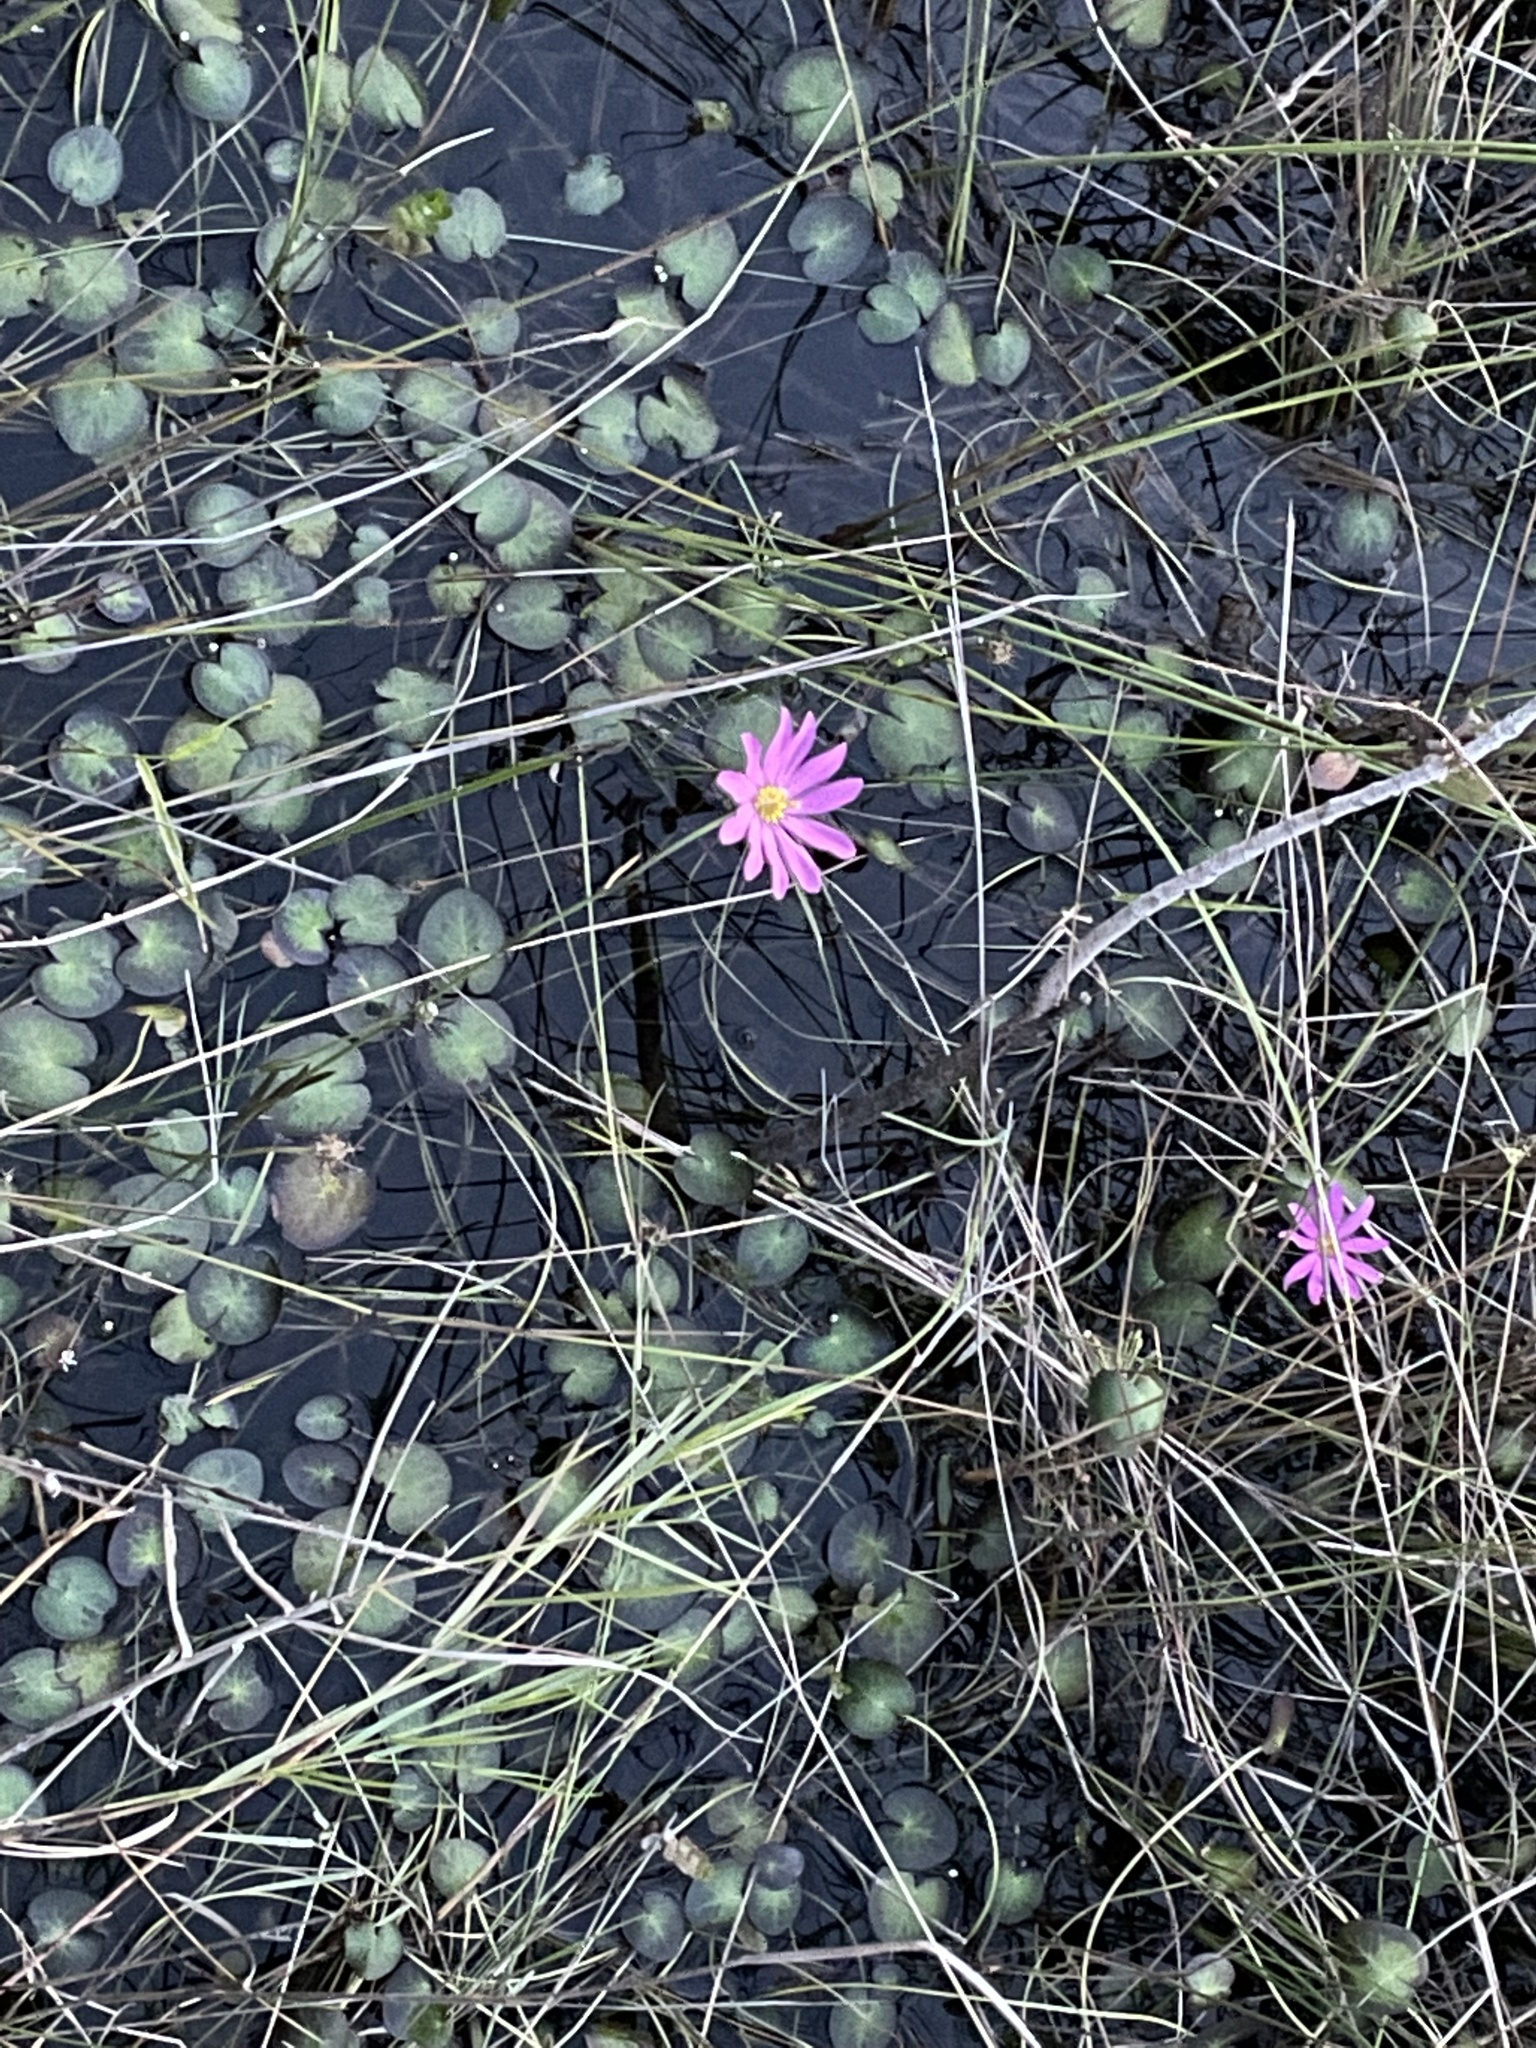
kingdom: Plantae
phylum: Tracheophyta
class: Magnoliopsida
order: Gentianales
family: Gentianaceae
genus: Sabatia
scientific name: Sabatia decandra
